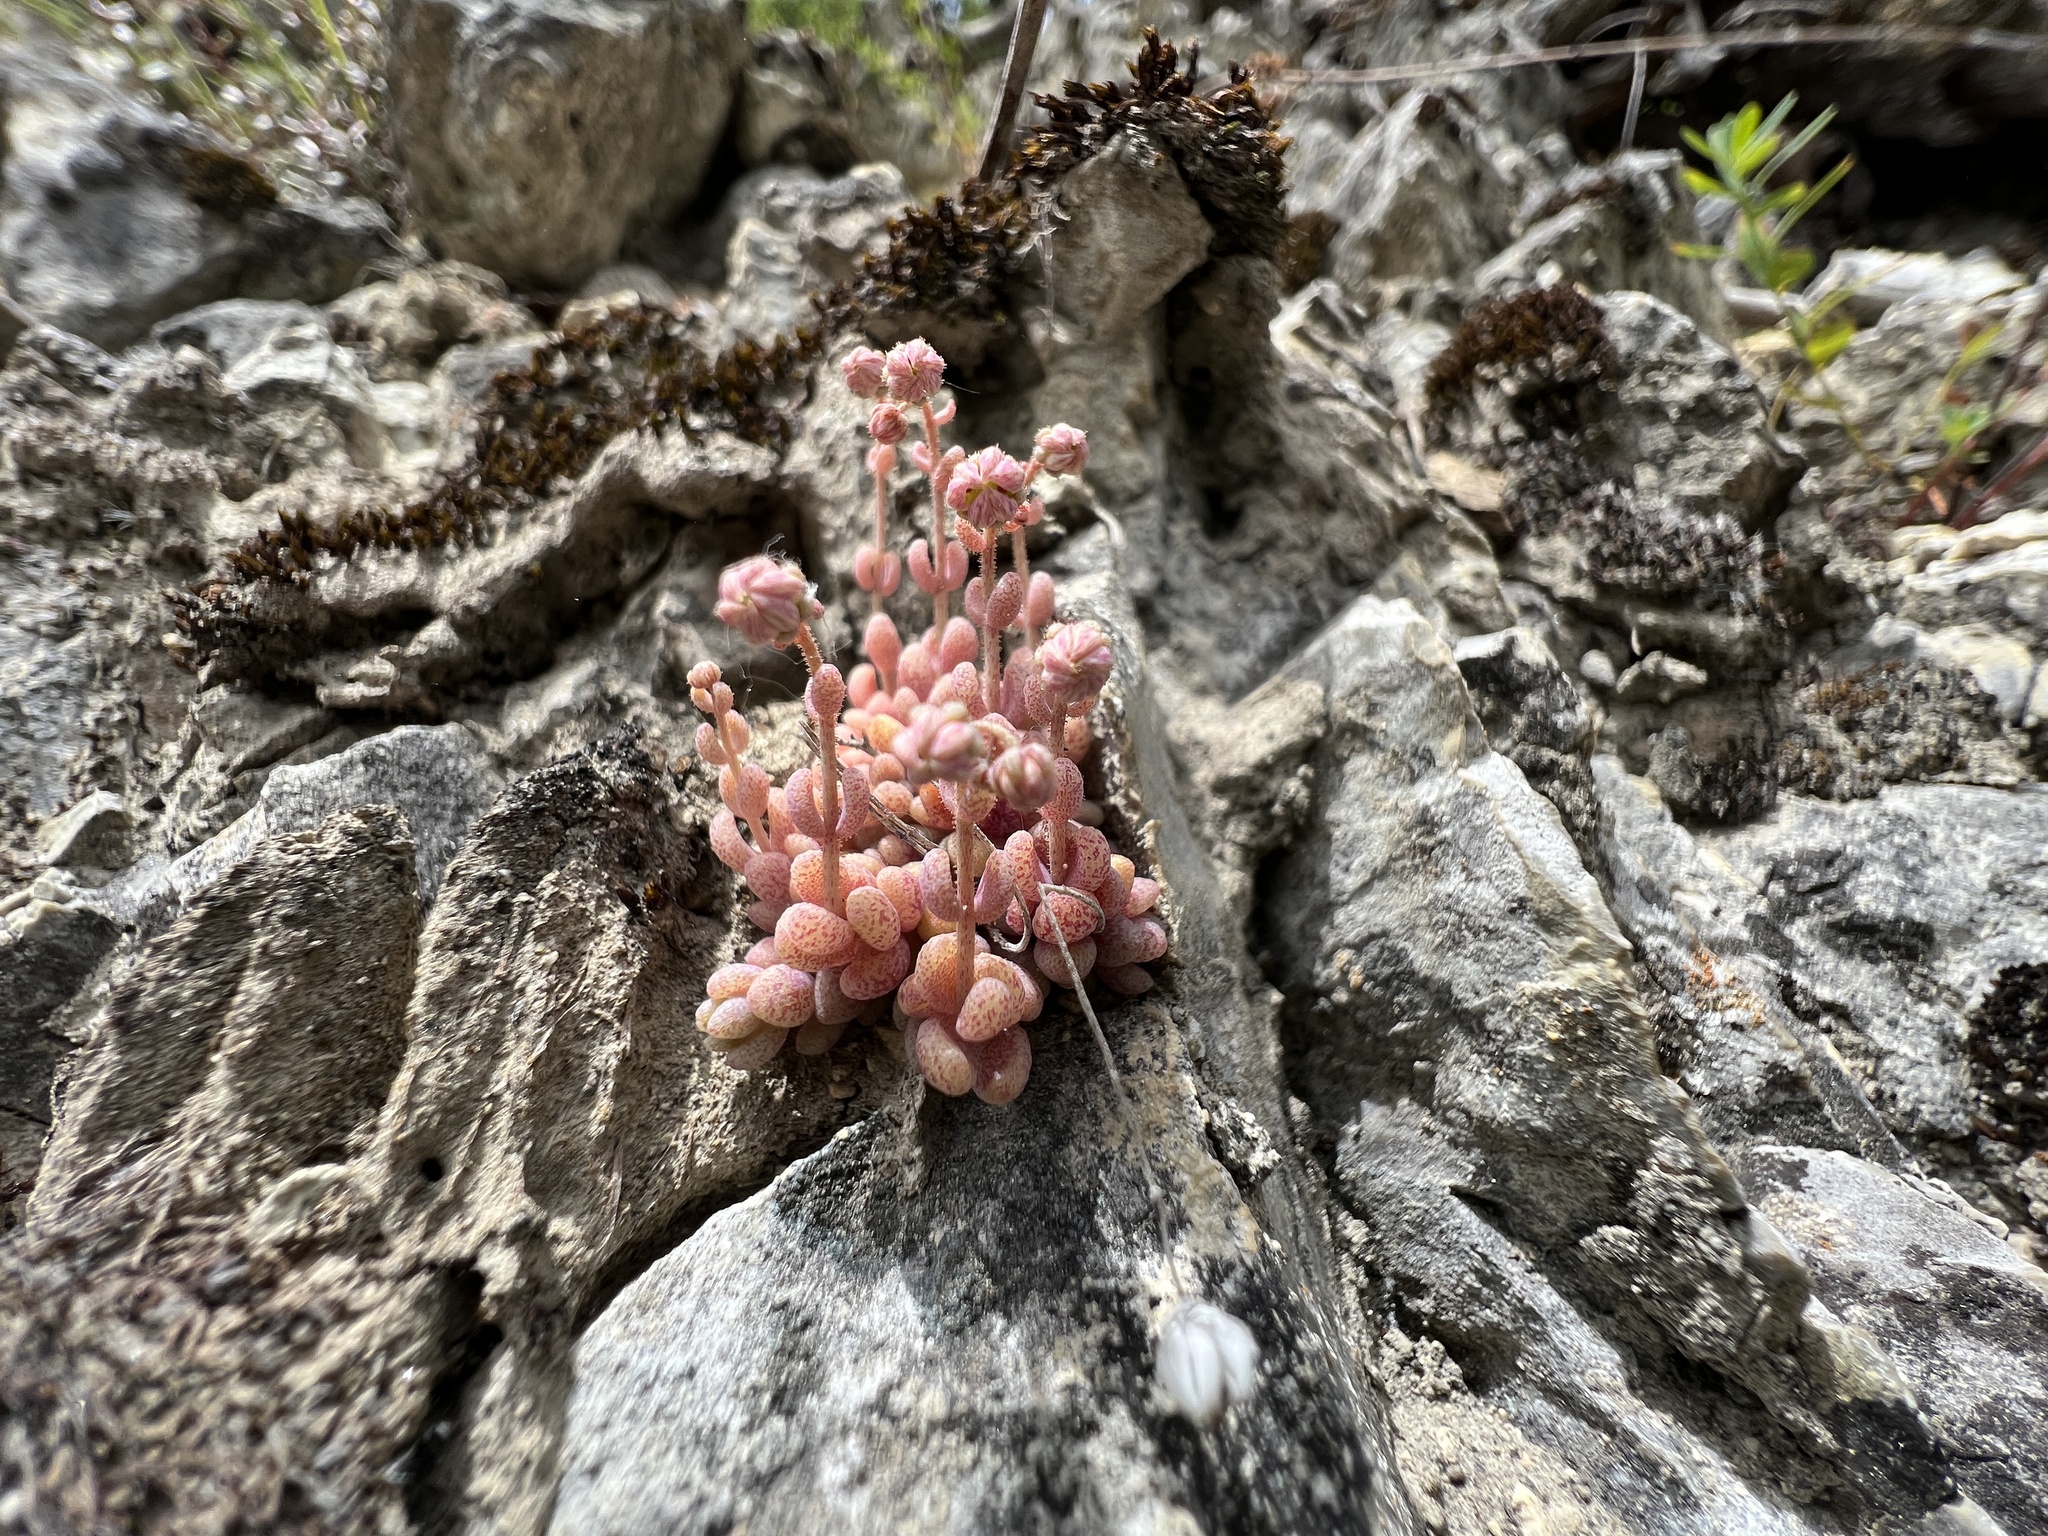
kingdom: Plantae
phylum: Tracheophyta
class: Magnoliopsida
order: Saxifragales
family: Crassulaceae
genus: Sedum
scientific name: Sedum dasyphyllum
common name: Thick-leaf stonecrop
